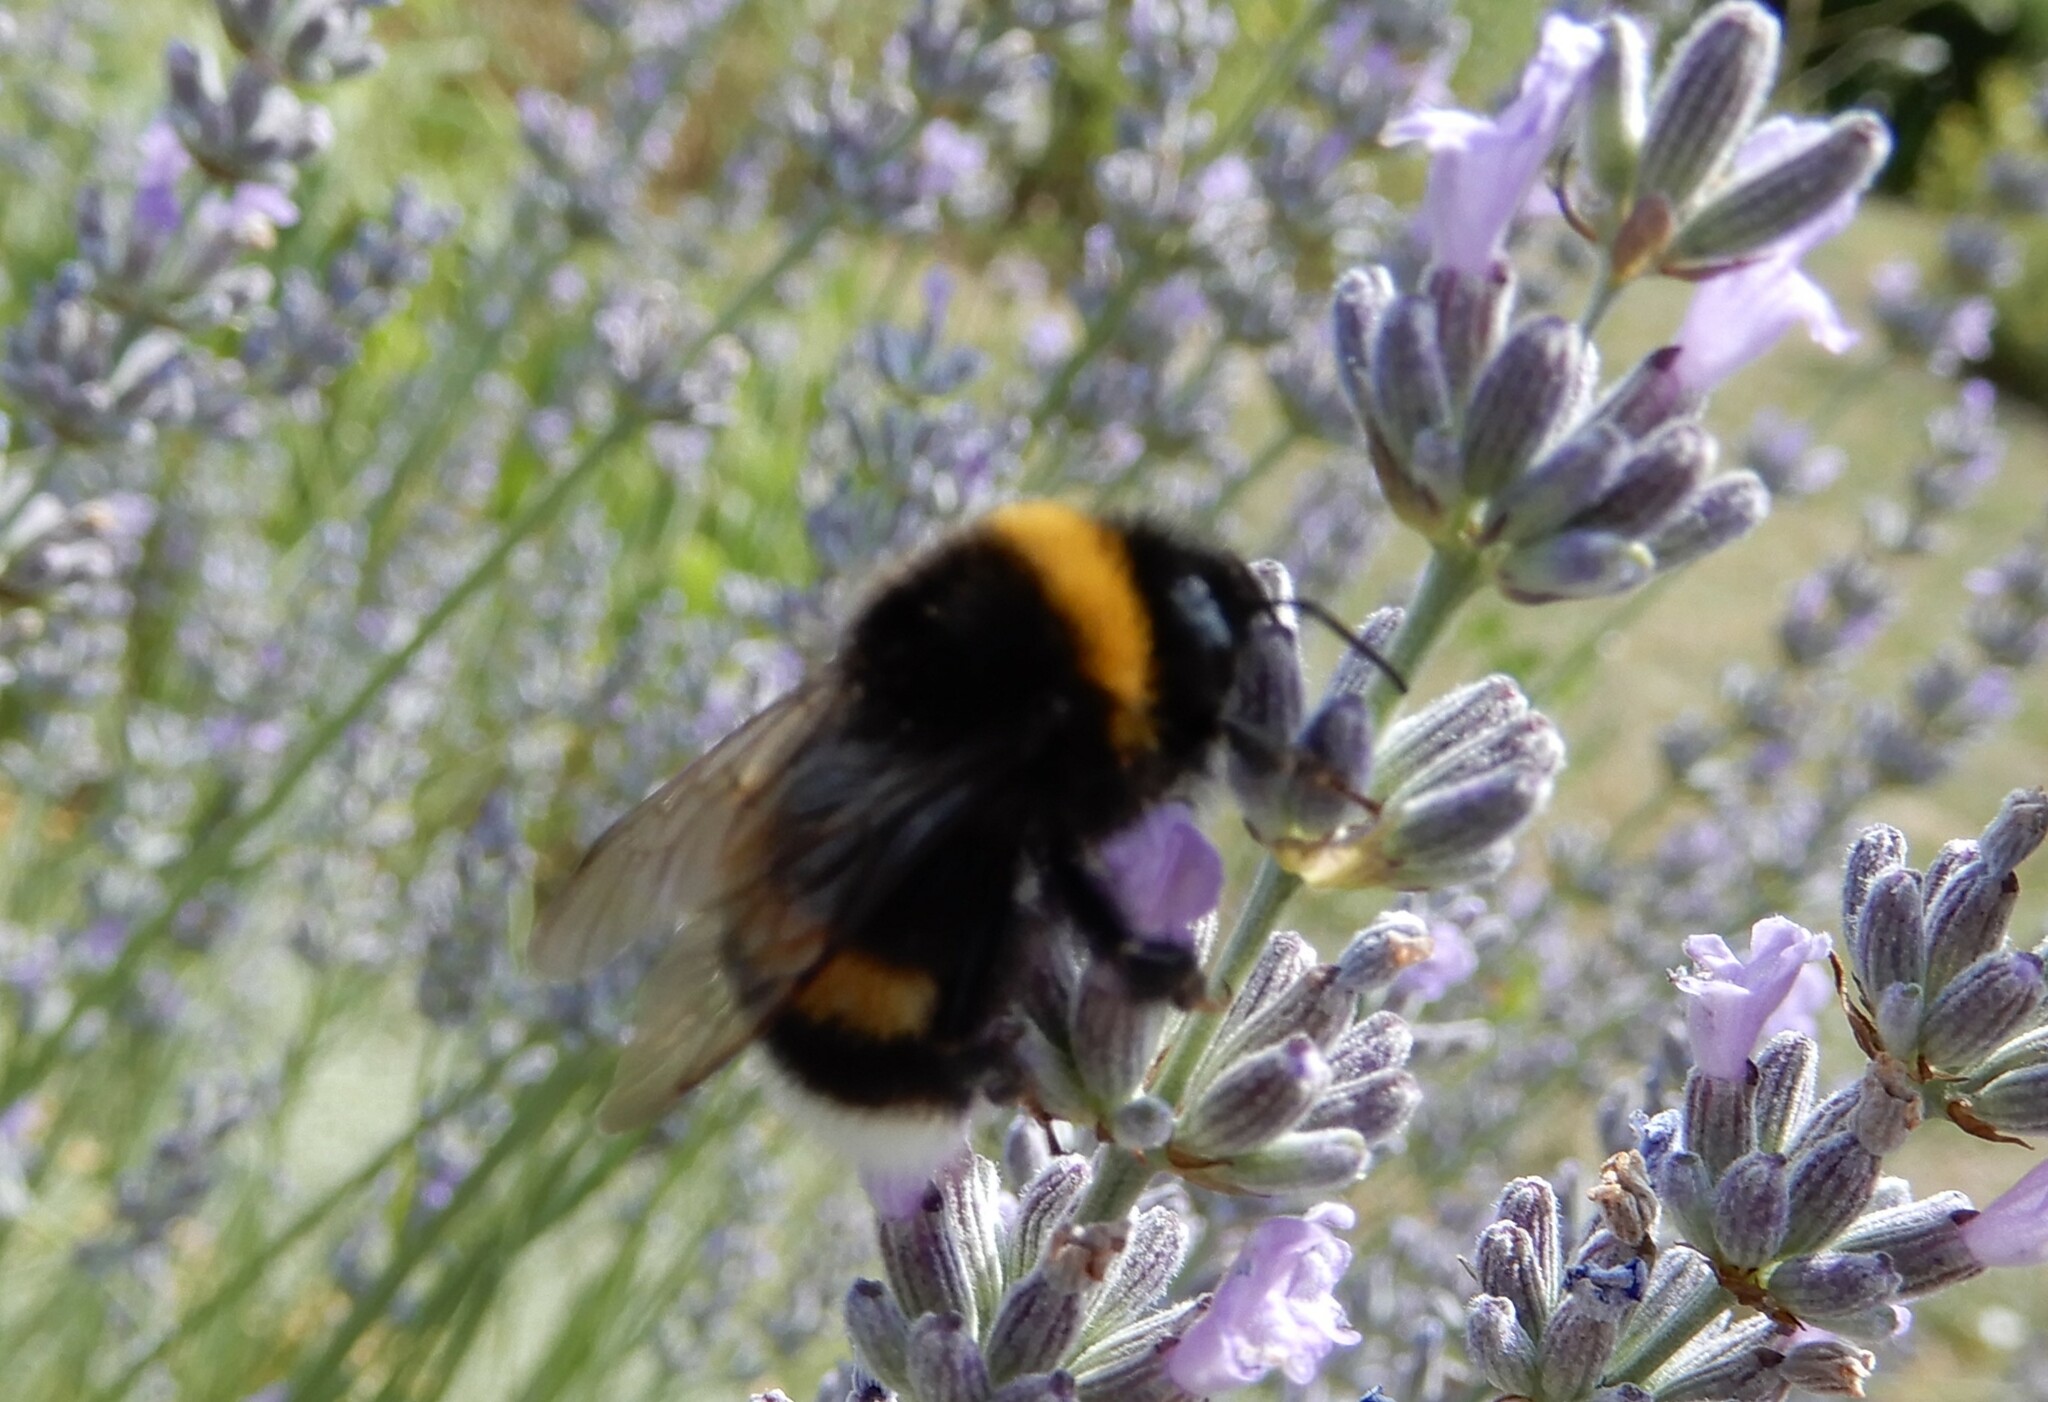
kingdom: Animalia
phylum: Arthropoda
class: Insecta
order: Hymenoptera
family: Apidae
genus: Bombus
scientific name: Bombus
